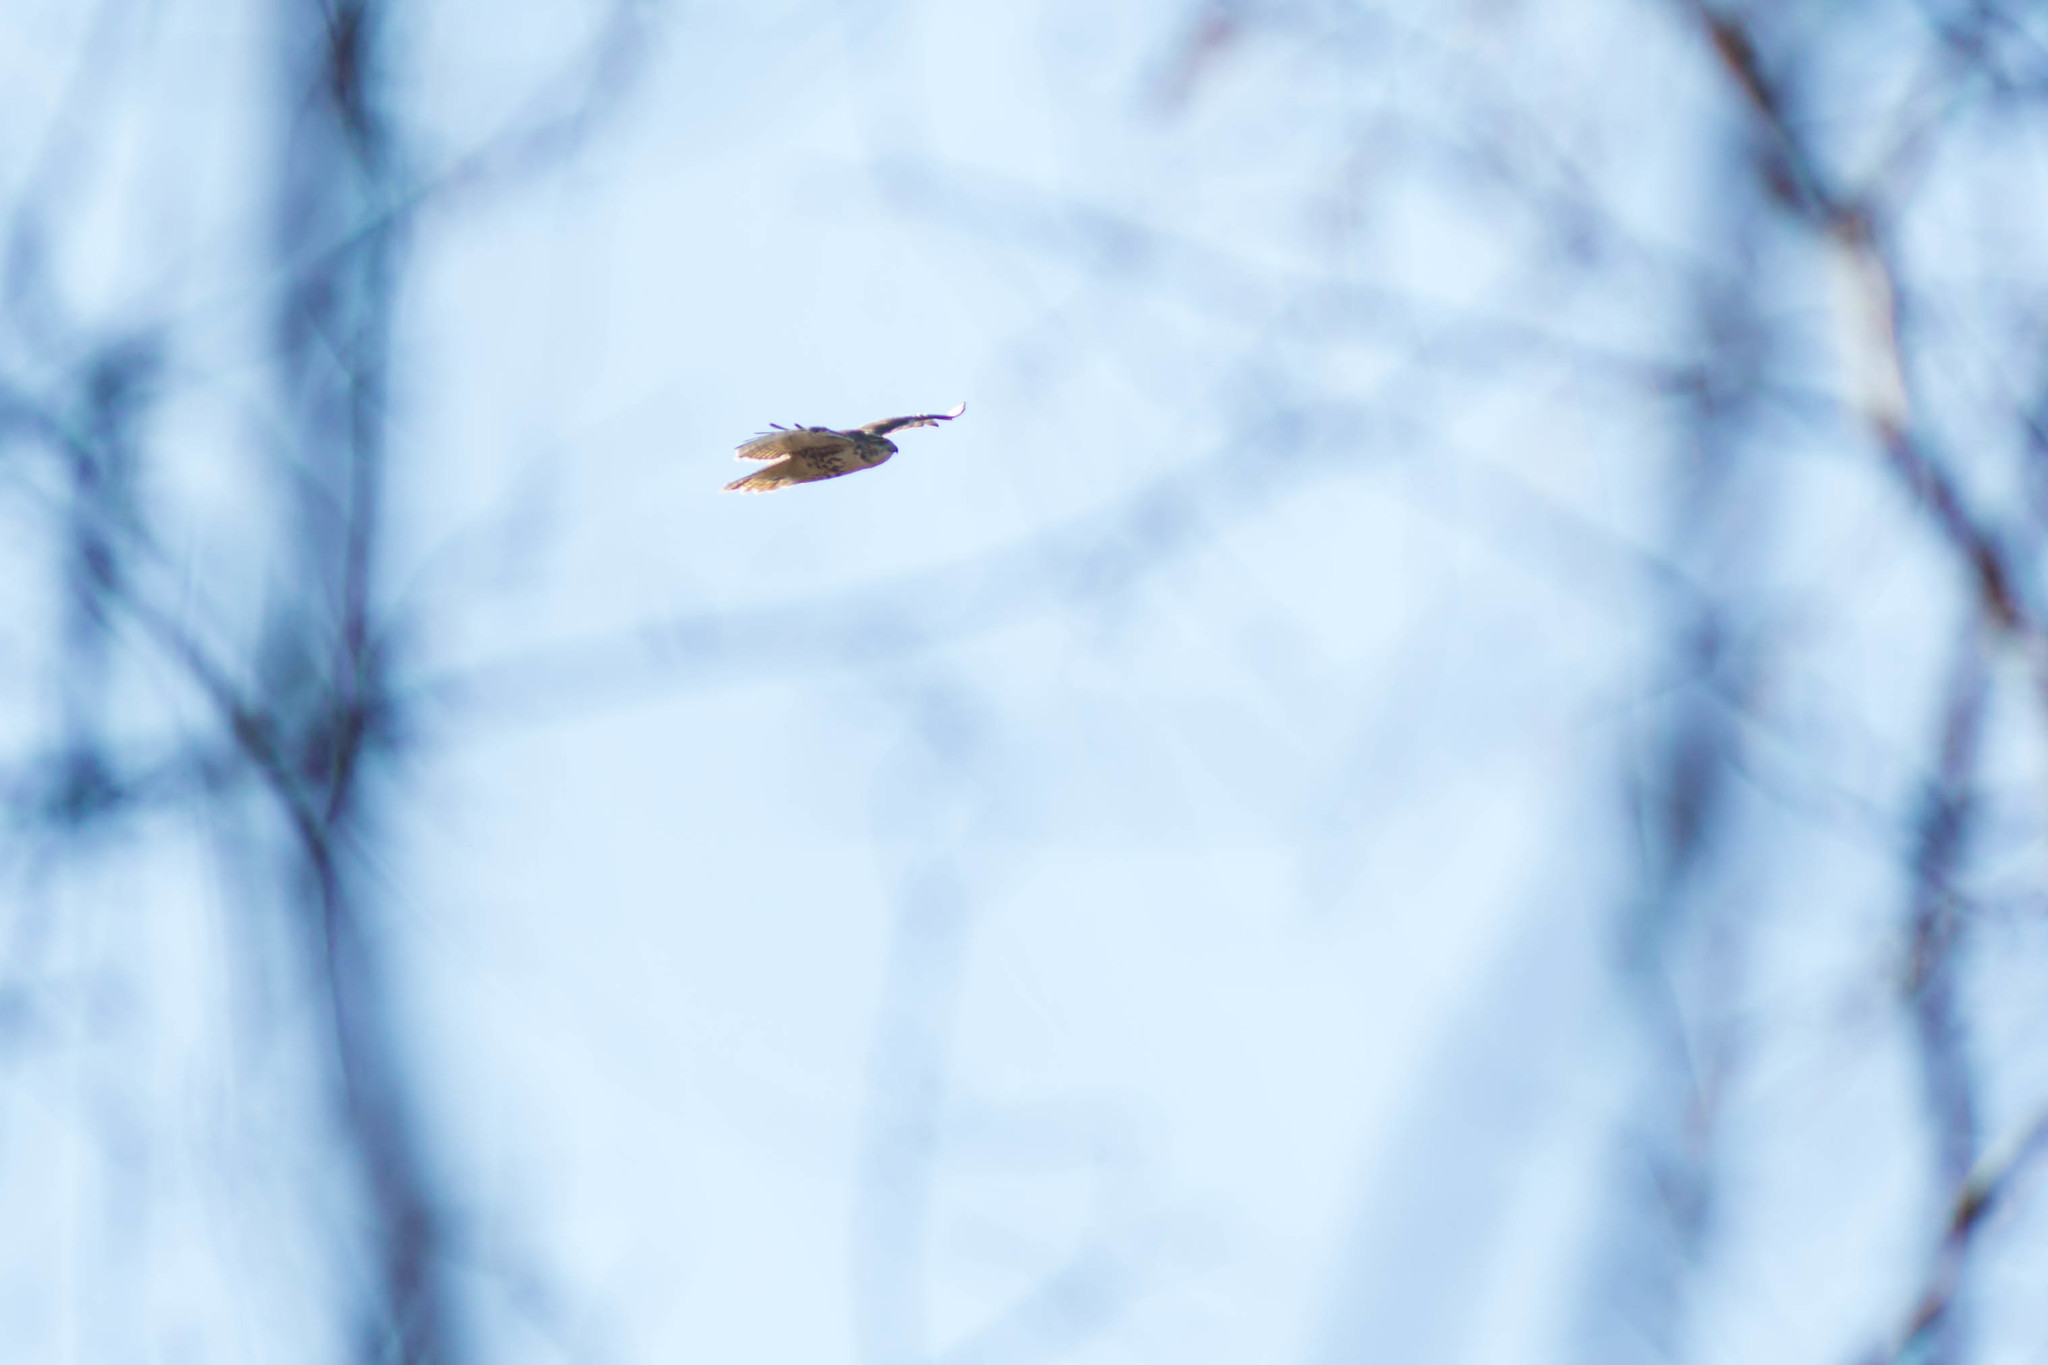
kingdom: Animalia
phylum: Chordata
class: Aves
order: Accipitriformes
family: Accipitridae
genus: Buteo
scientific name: Buteo jamaicensis
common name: Red-tailed hawk
